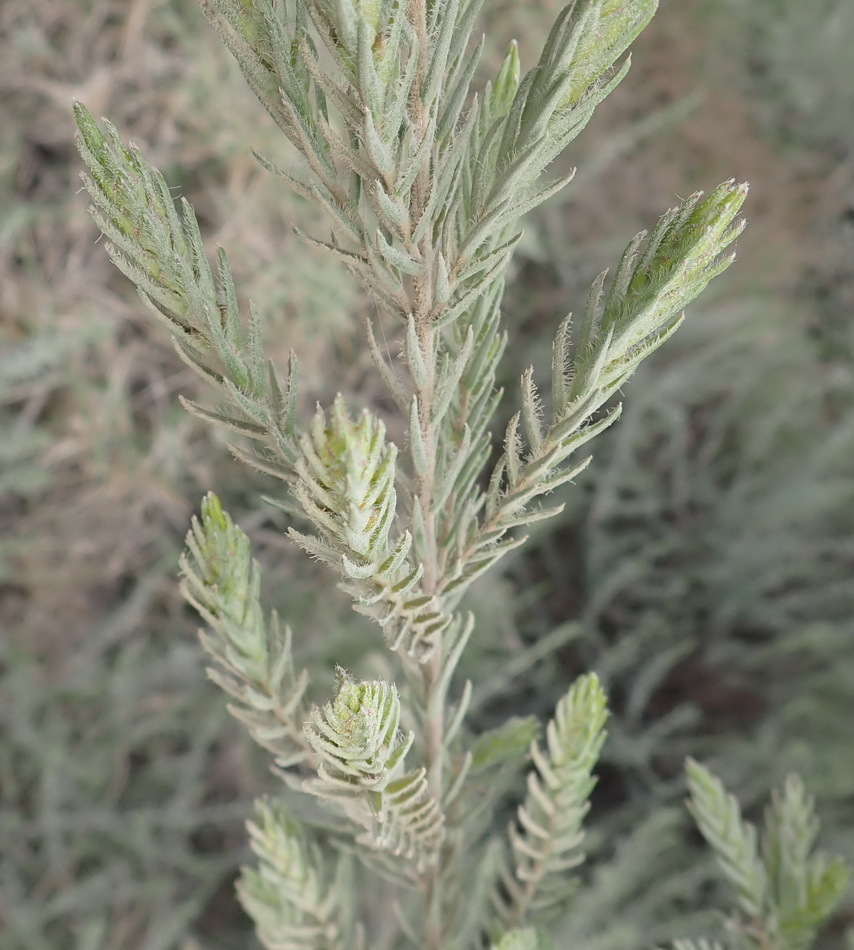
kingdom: Plantae
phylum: Tracheophyta
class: Magnoliopsida
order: Malvales
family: Thymelaeaceae
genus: Passerina
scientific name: Passerina falcifolia
